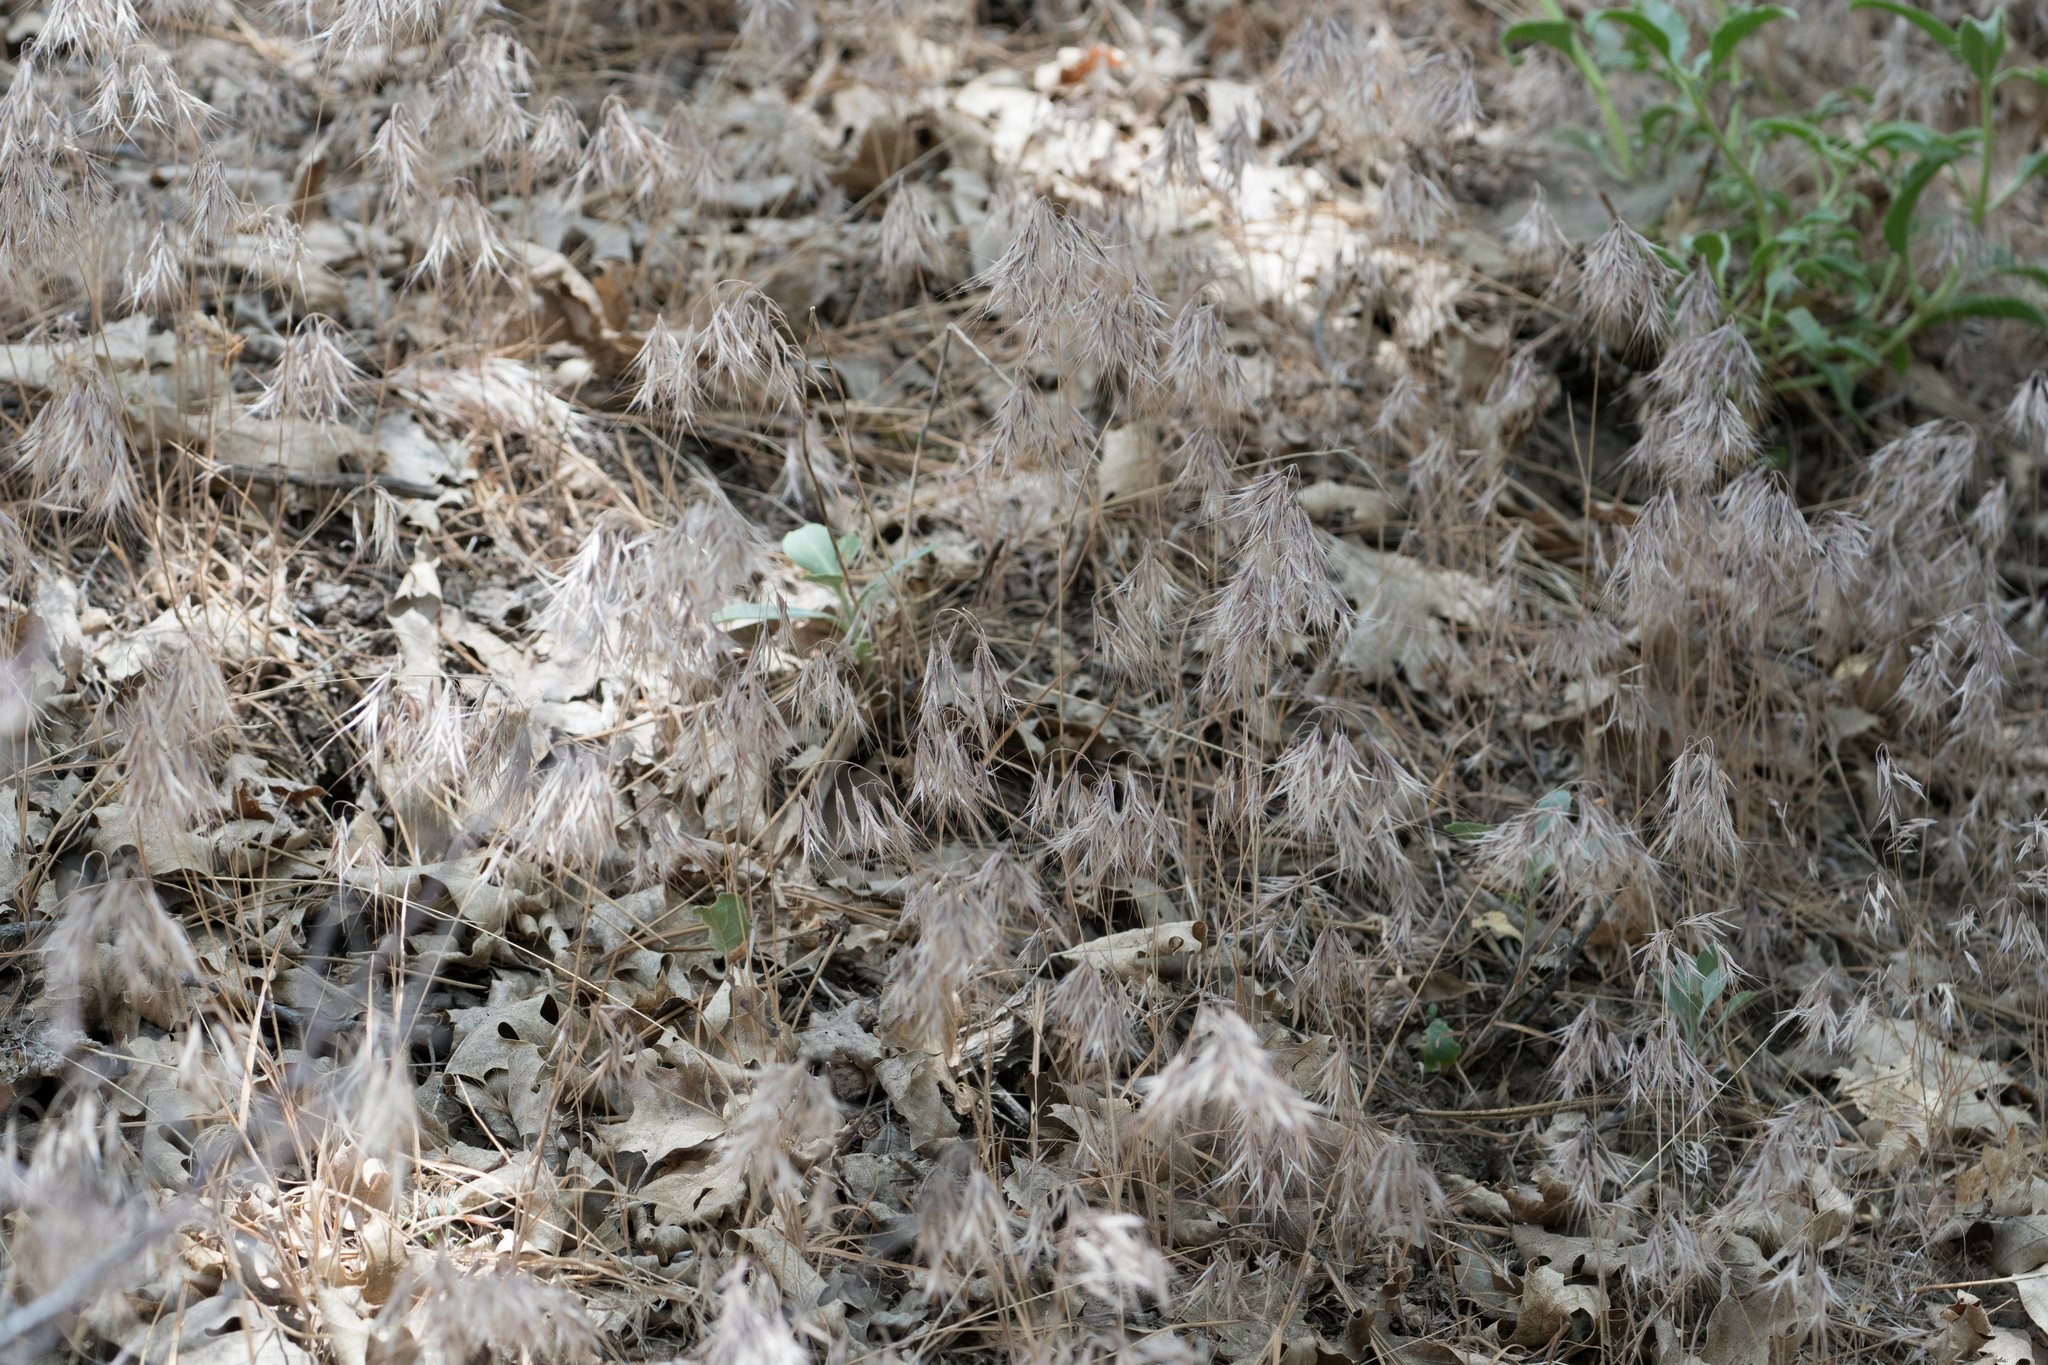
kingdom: Plantae
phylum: Tracheophyta
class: Liliopsida
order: Poales
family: Poaceae
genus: Bromus
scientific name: Bromus tectorum
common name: Cheatgrass
